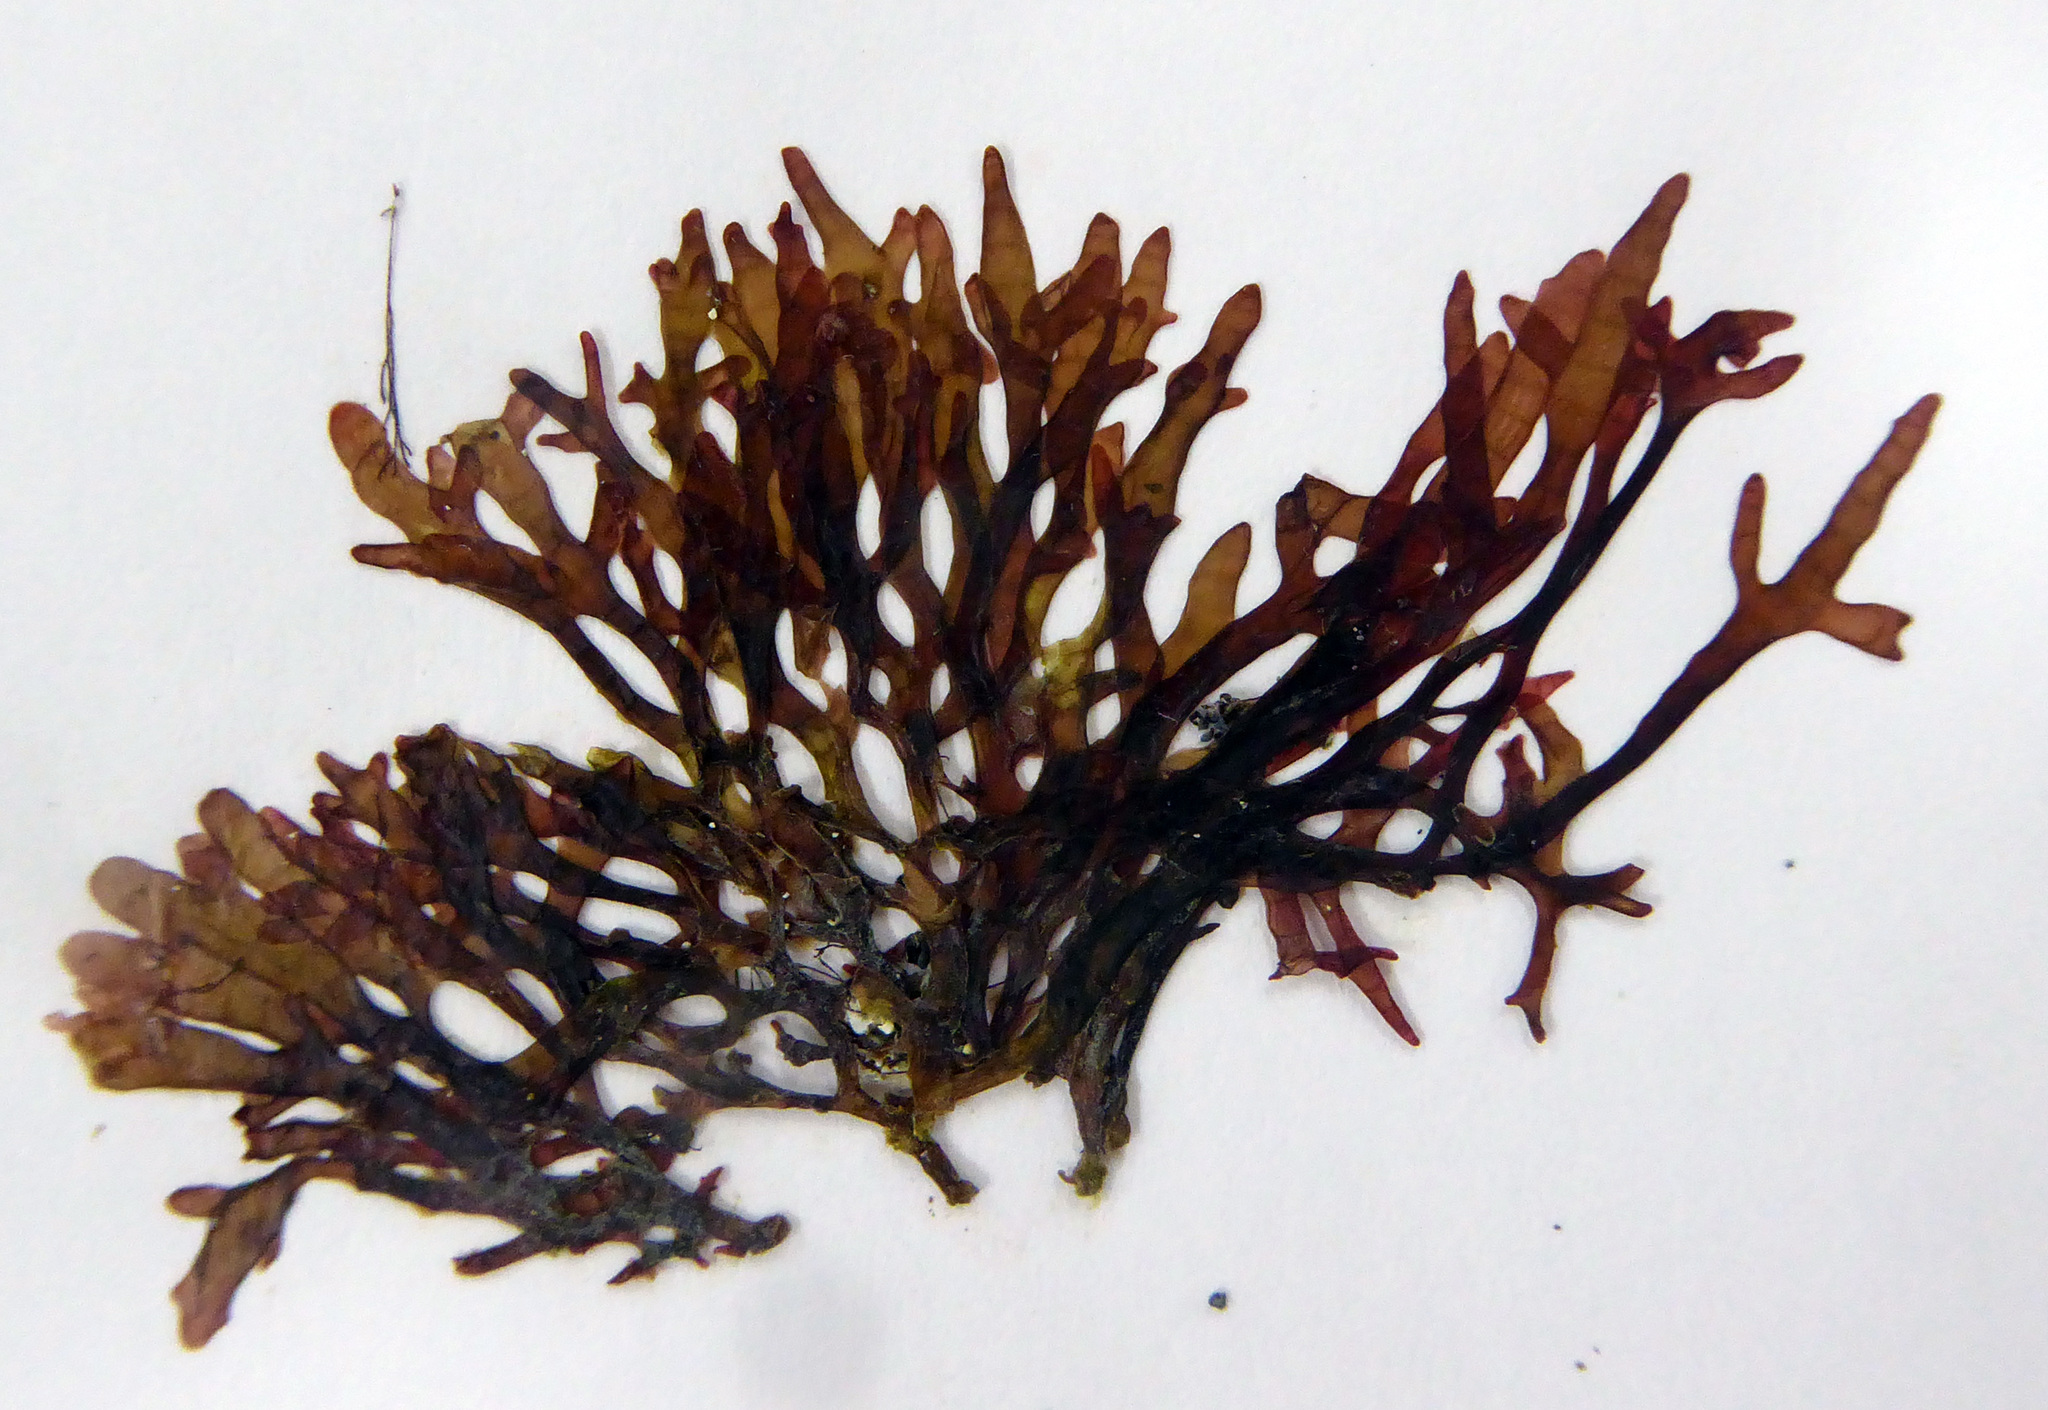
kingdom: Plantae
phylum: Rhodophyta
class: Florideophyceae
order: Rhodymeniales
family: Champiaceae
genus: Champia
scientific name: Champia novae-zelandiae
